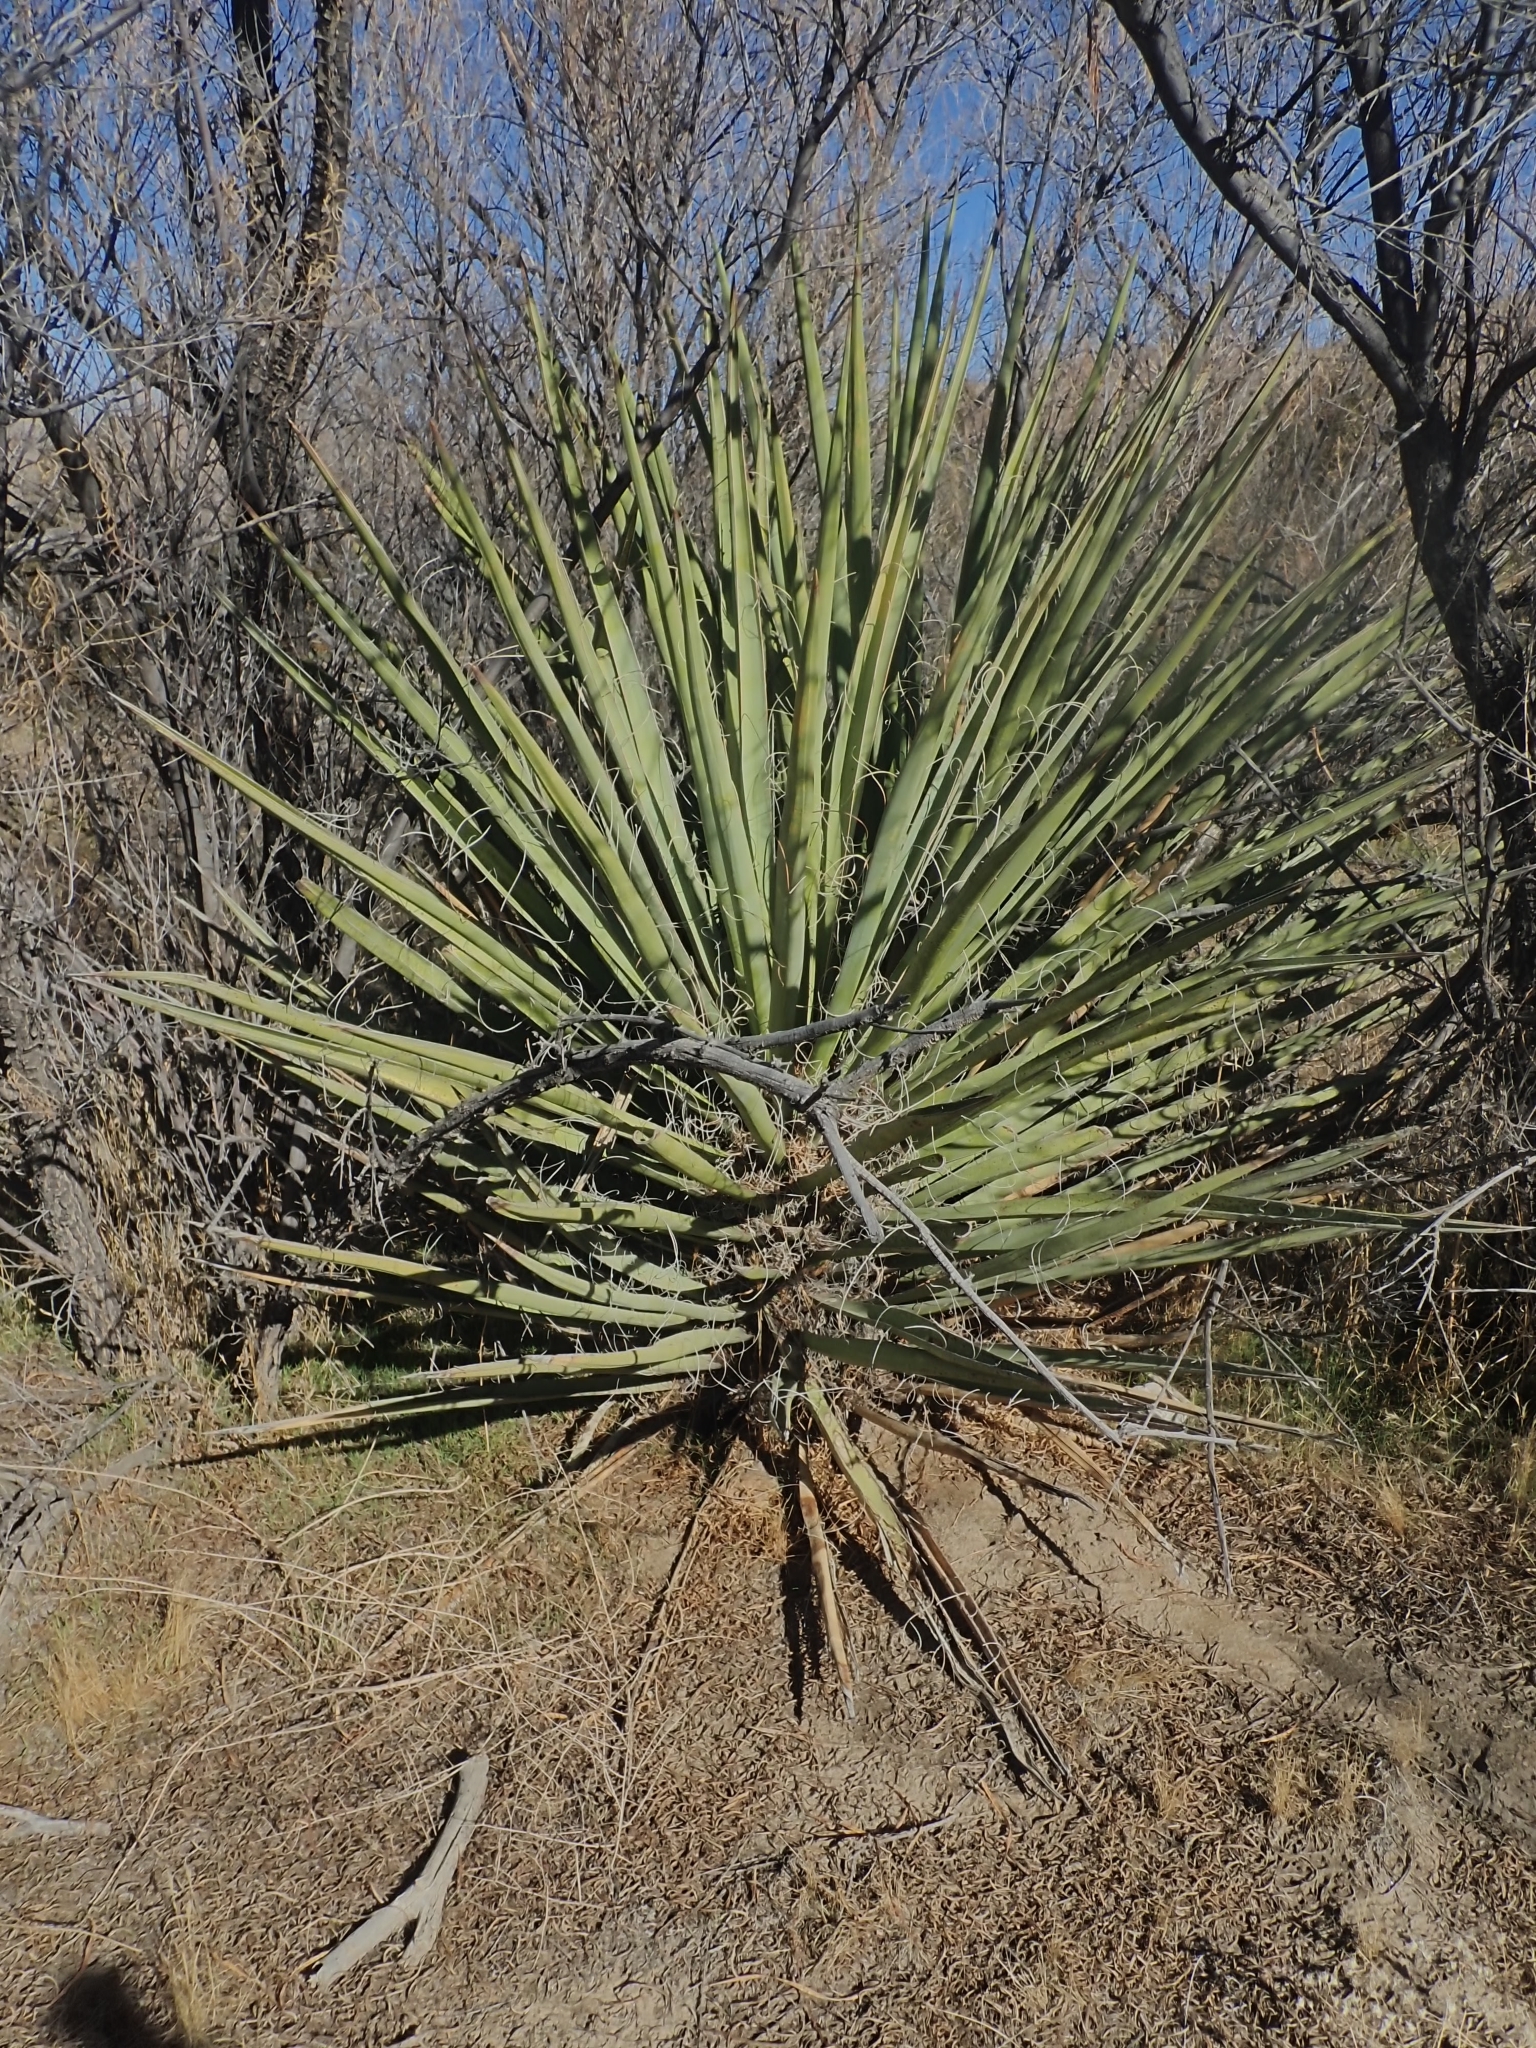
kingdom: Plantae
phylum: Tracheophyta
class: Liliopsida
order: Asparagales
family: Asparagaceae
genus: Yucca
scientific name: Yucca schidigera
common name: Mojave yucca
